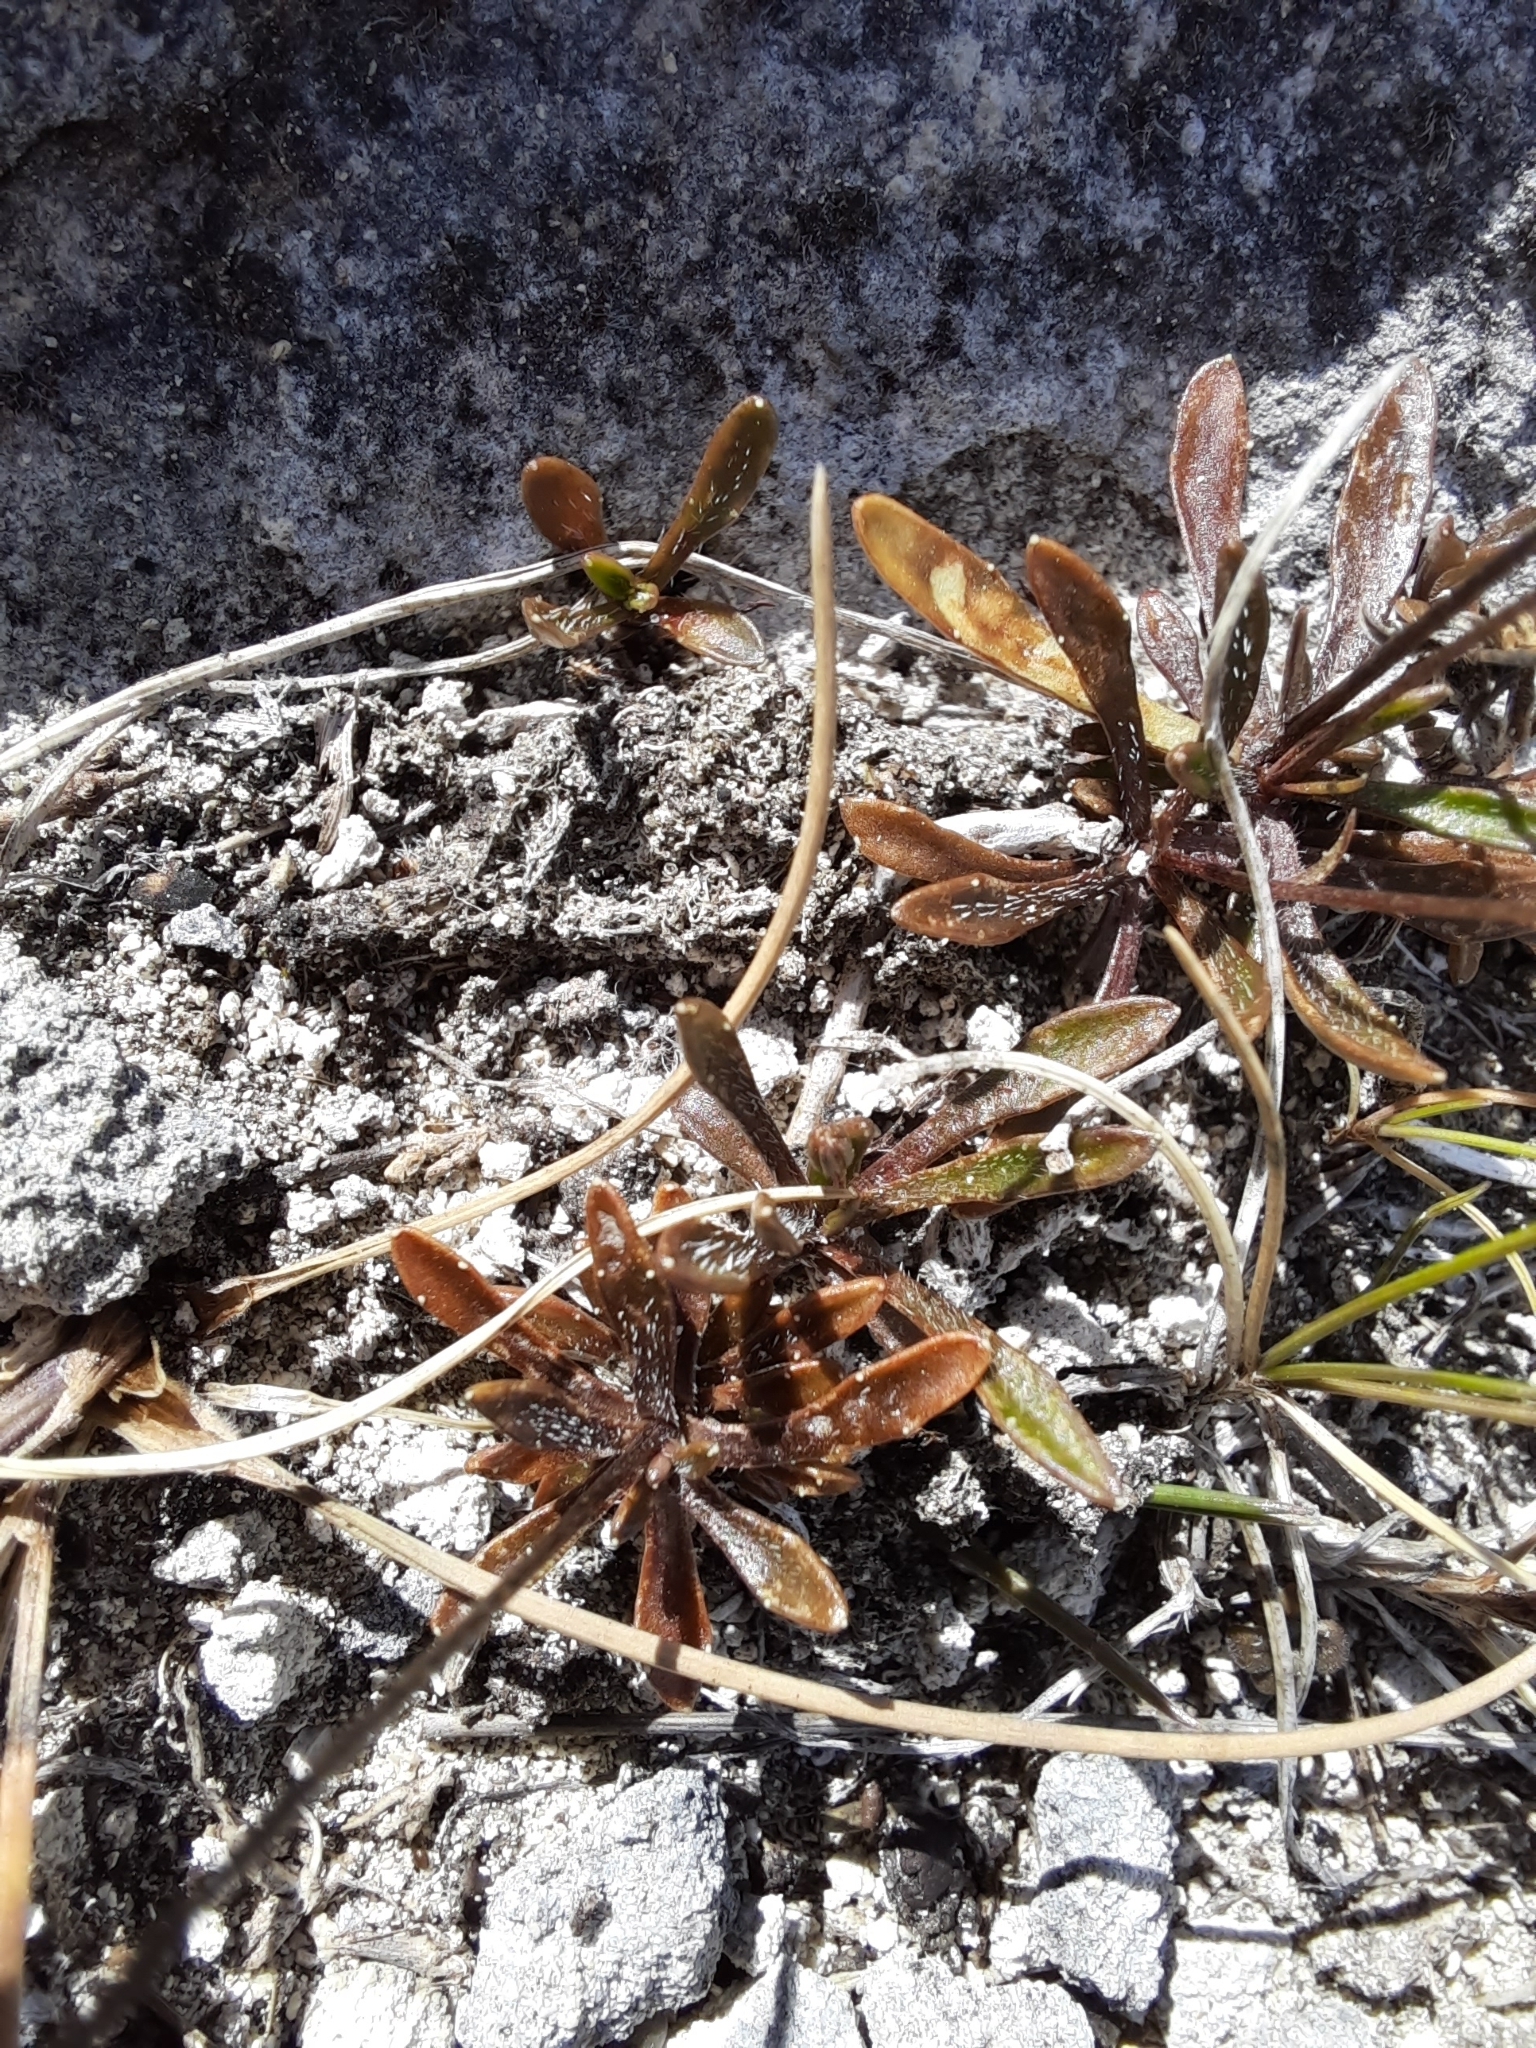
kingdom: Plantae
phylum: Tracheophyta
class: Magnoliopsida
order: Asterales
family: Campanulaceae
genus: Wahlenbergia
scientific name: Wahlenbergia albomarginata
